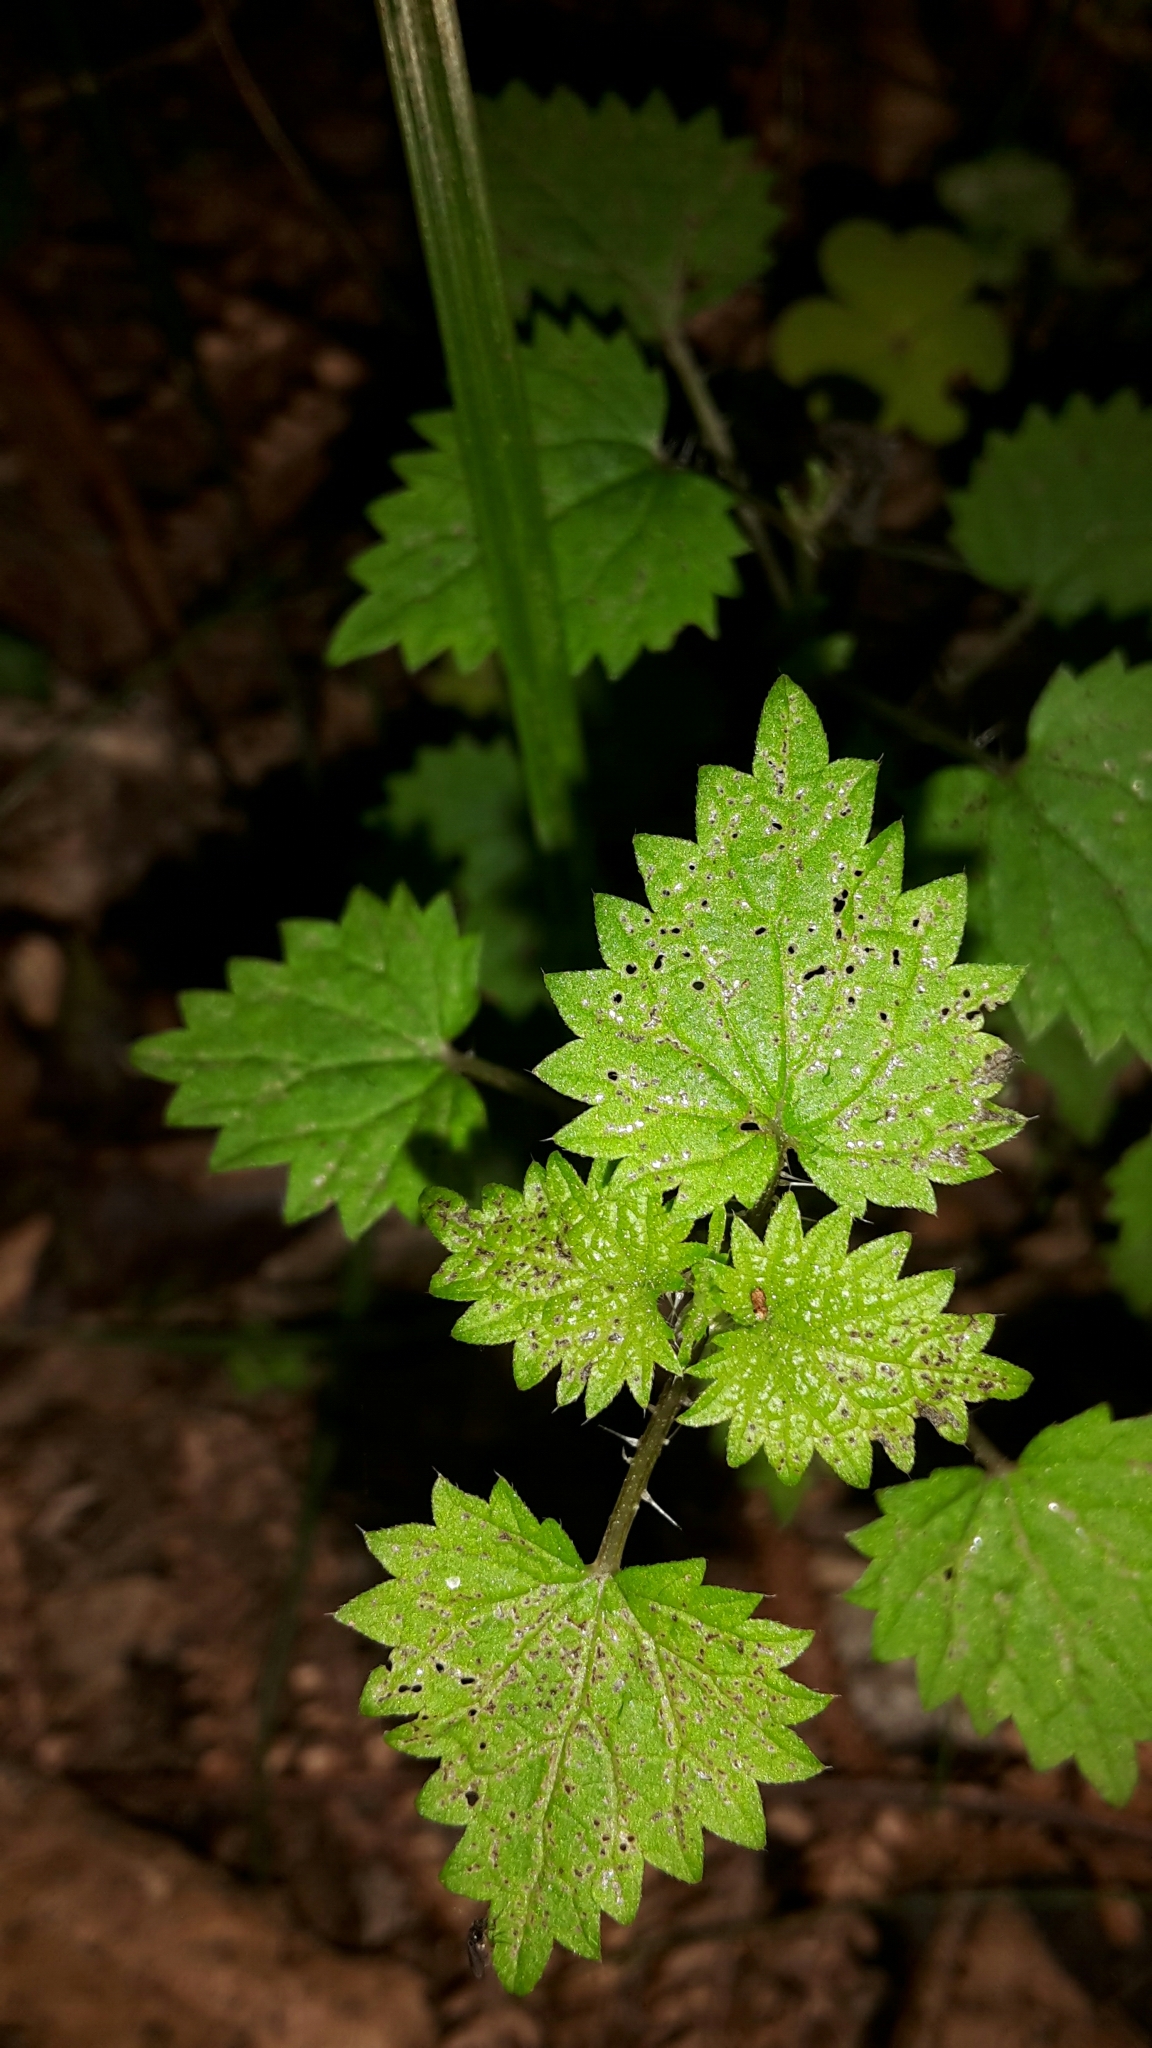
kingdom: Plantae
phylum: Tracheophyta
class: Magnoliopsida
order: Rosales
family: Urticaceae
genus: Urtica
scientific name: Urtica sykesii
